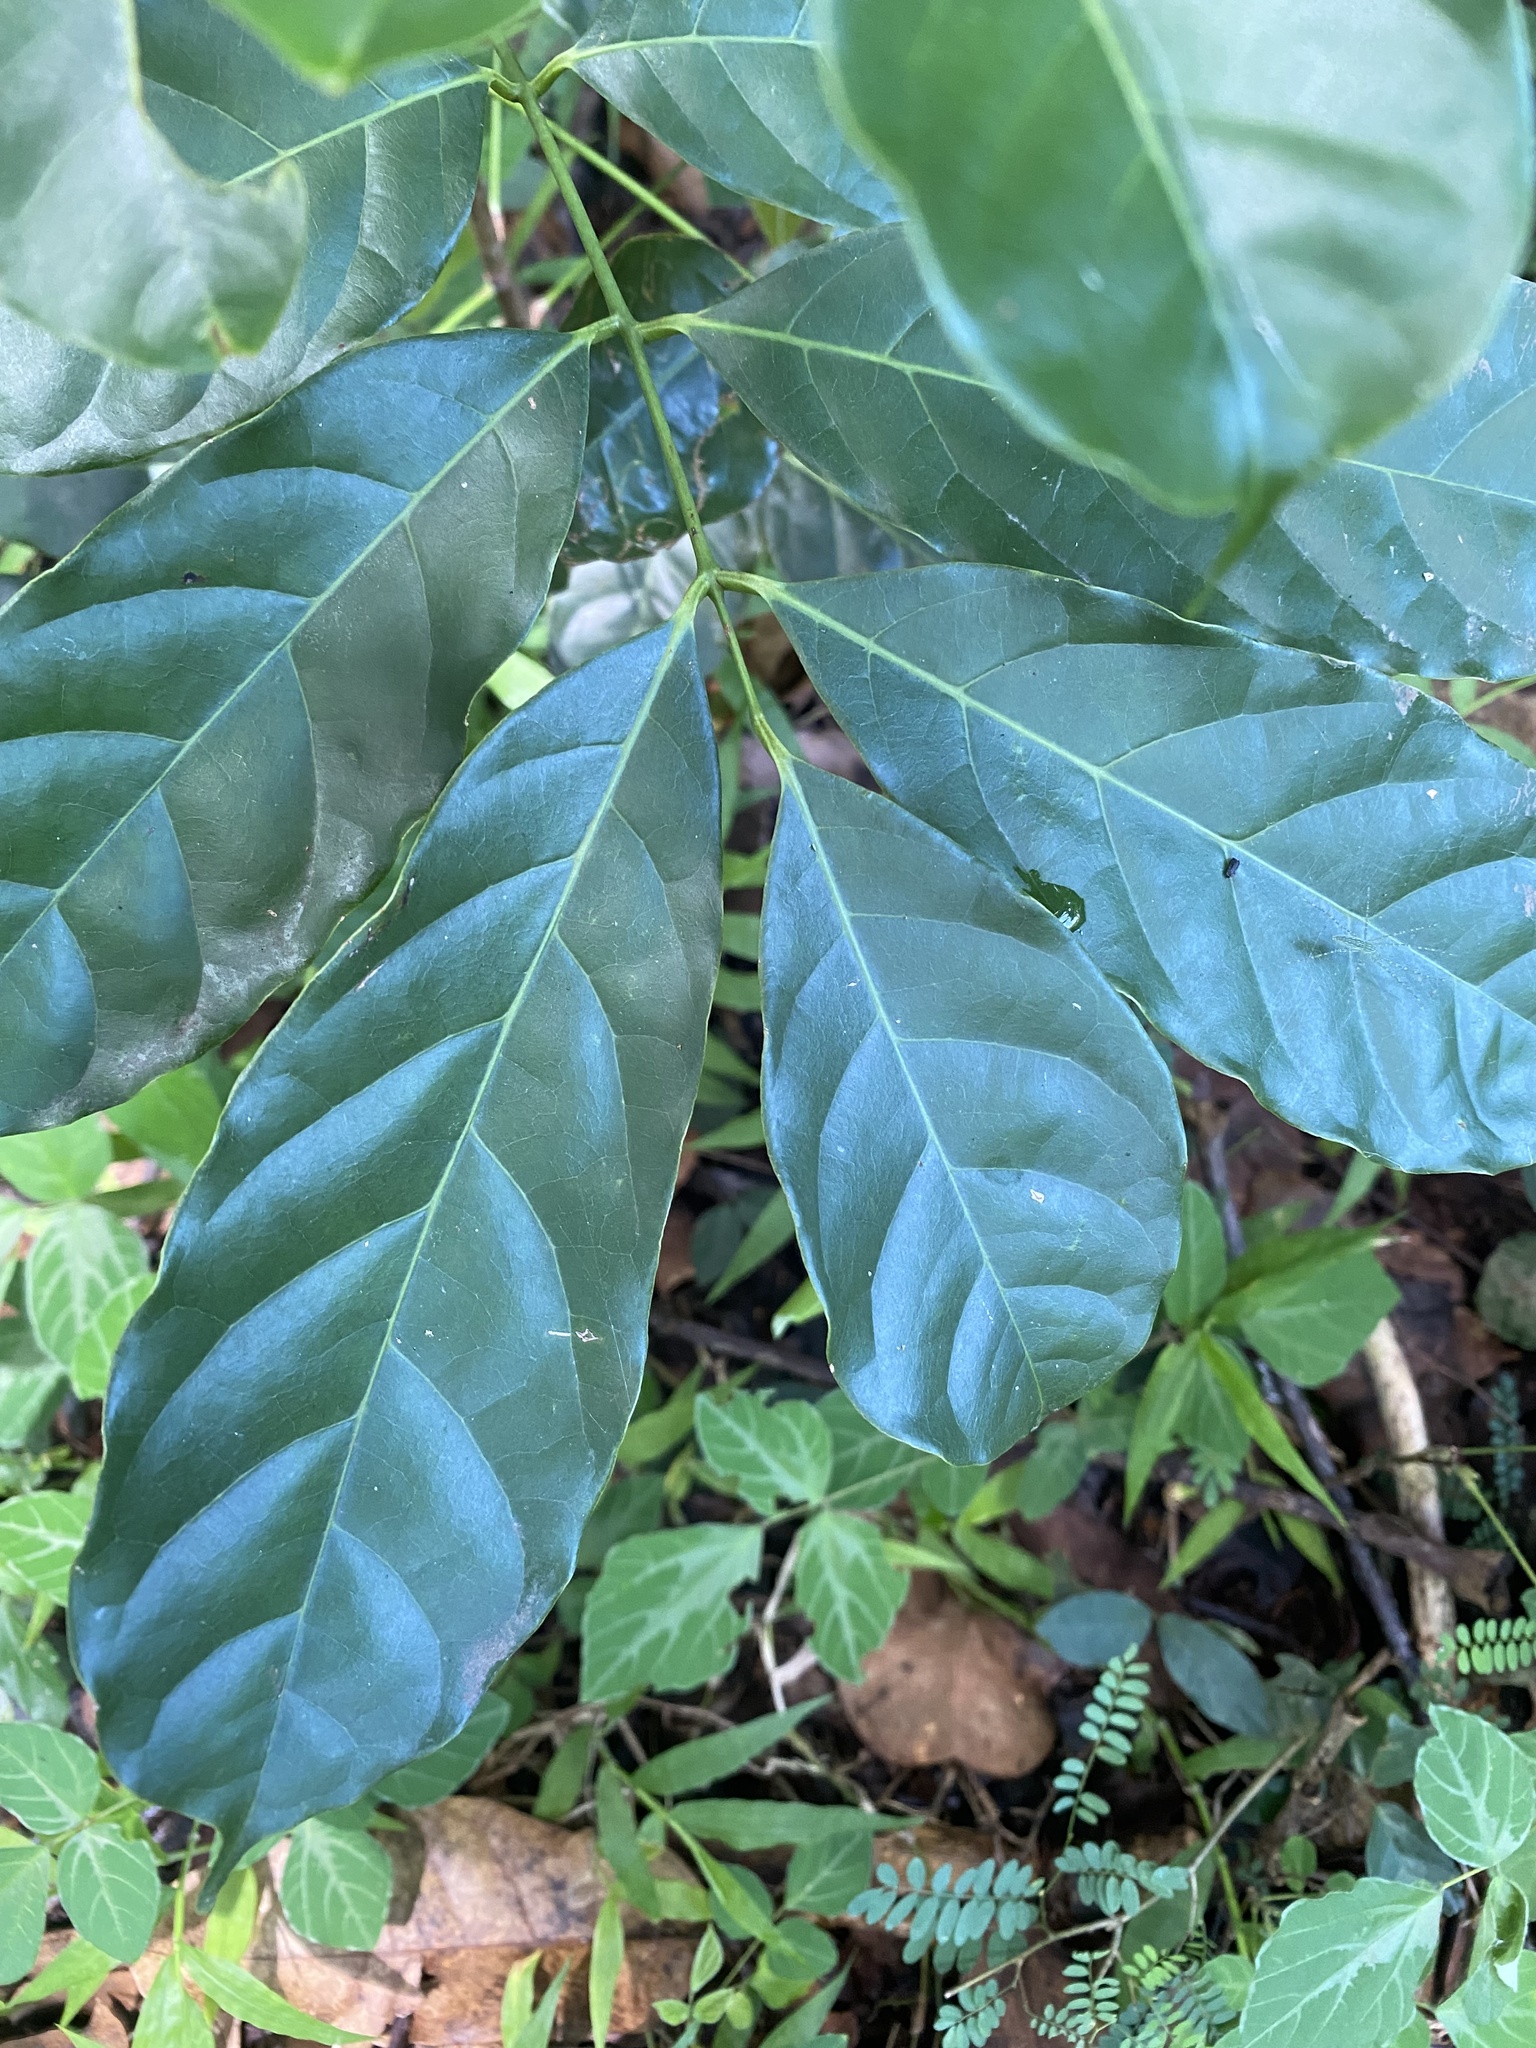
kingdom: Plantae
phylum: Tracheophyta
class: Magnoliopsida
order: Sapindales
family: Meliaceae
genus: Khaya
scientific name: Khaya anthotheca
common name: Nyasaland mahogany
